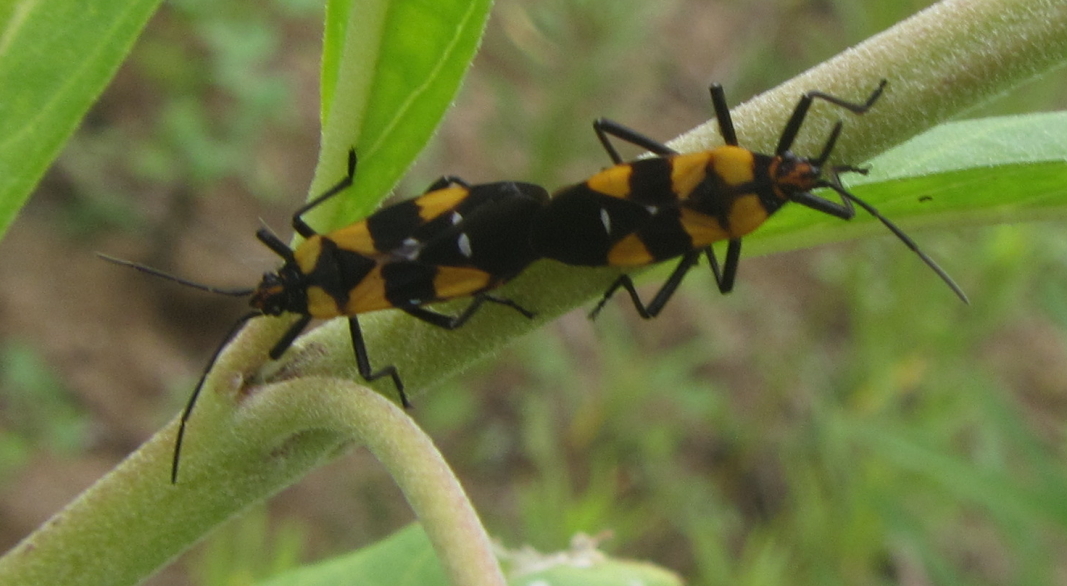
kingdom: Animalia
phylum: Arthropoda
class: Insecta
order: Hemiptera
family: Lygaeidae
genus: Oncopeltus
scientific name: Oncopeltus famelicus
